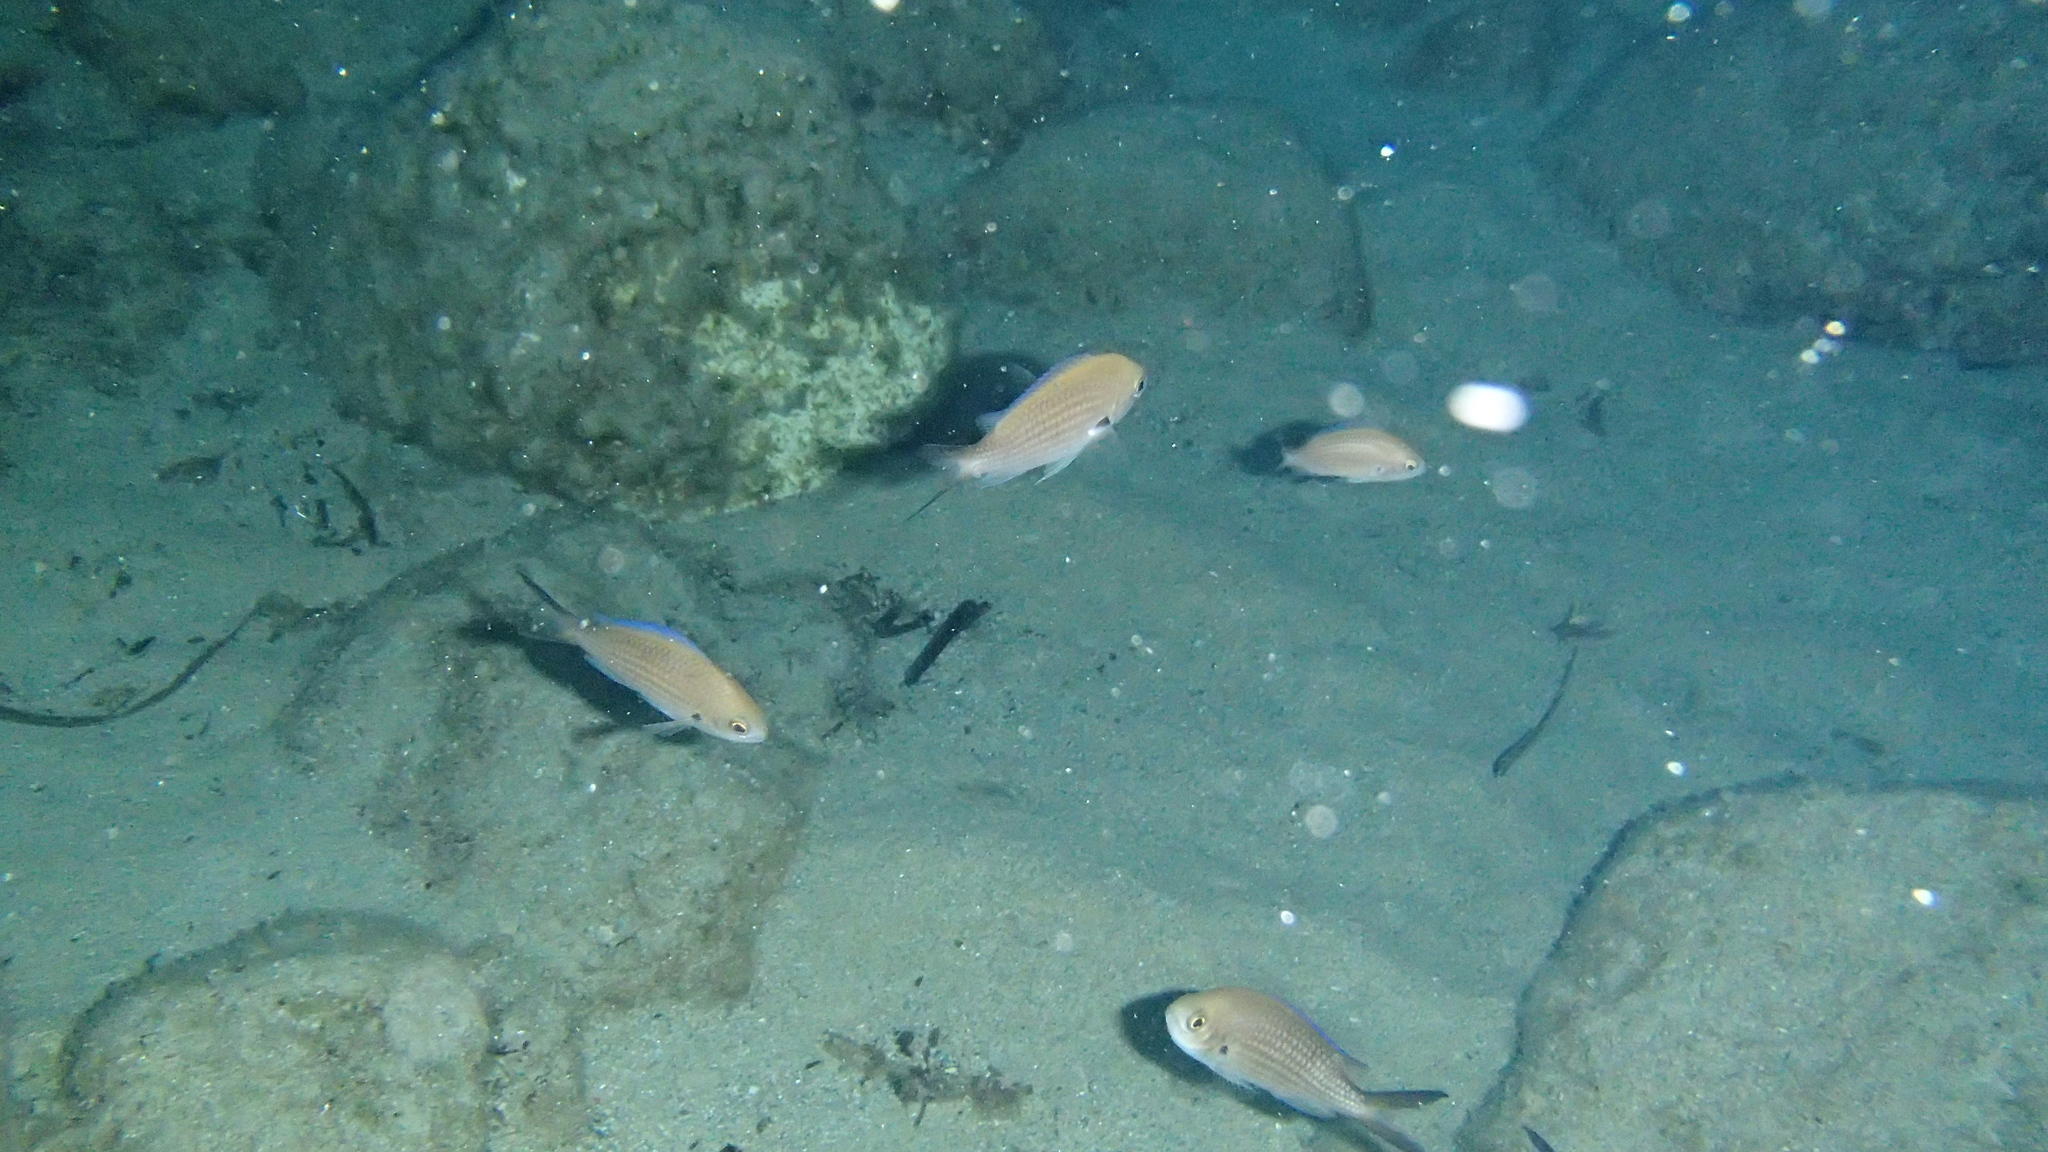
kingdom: Animalia
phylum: Chordata
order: Perciformes
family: Pomacentridae
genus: Chromis
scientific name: Chromis chromis
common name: Damselfish
